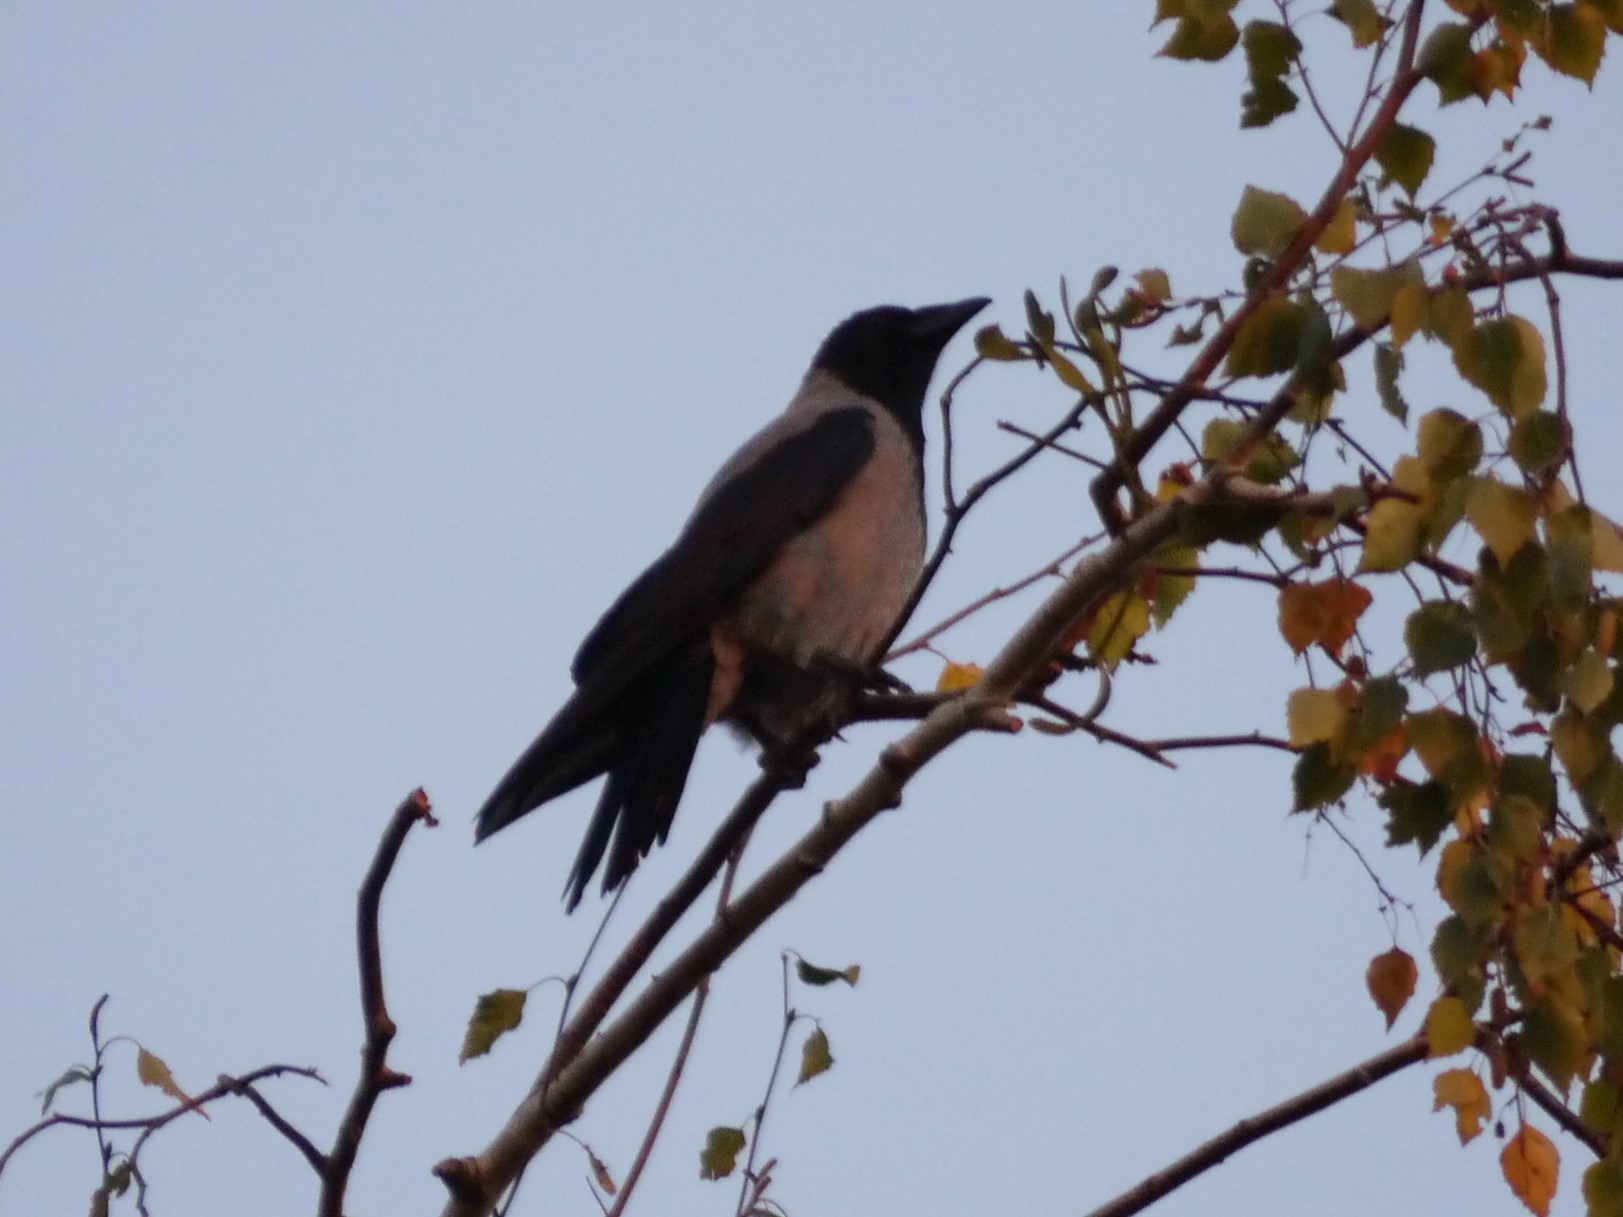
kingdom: Animalia
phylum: Chordata
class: Aves
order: Passeriformes
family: Corvidae
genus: Corvus
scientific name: Corvus cornix
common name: Hooded crow
